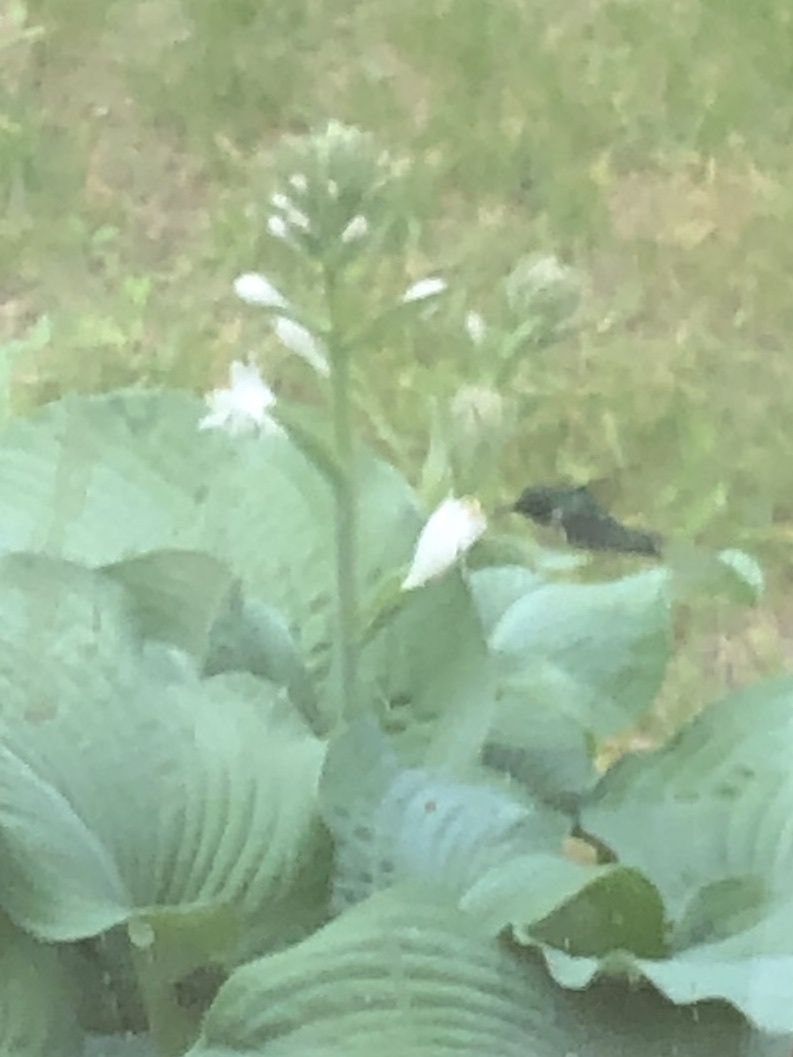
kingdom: Animalia
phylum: Chordata
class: Aves
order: Apodiformes
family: Trochilidae
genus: Archilochus
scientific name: Archilochus colubris
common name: Ruby-throated hummingbird
